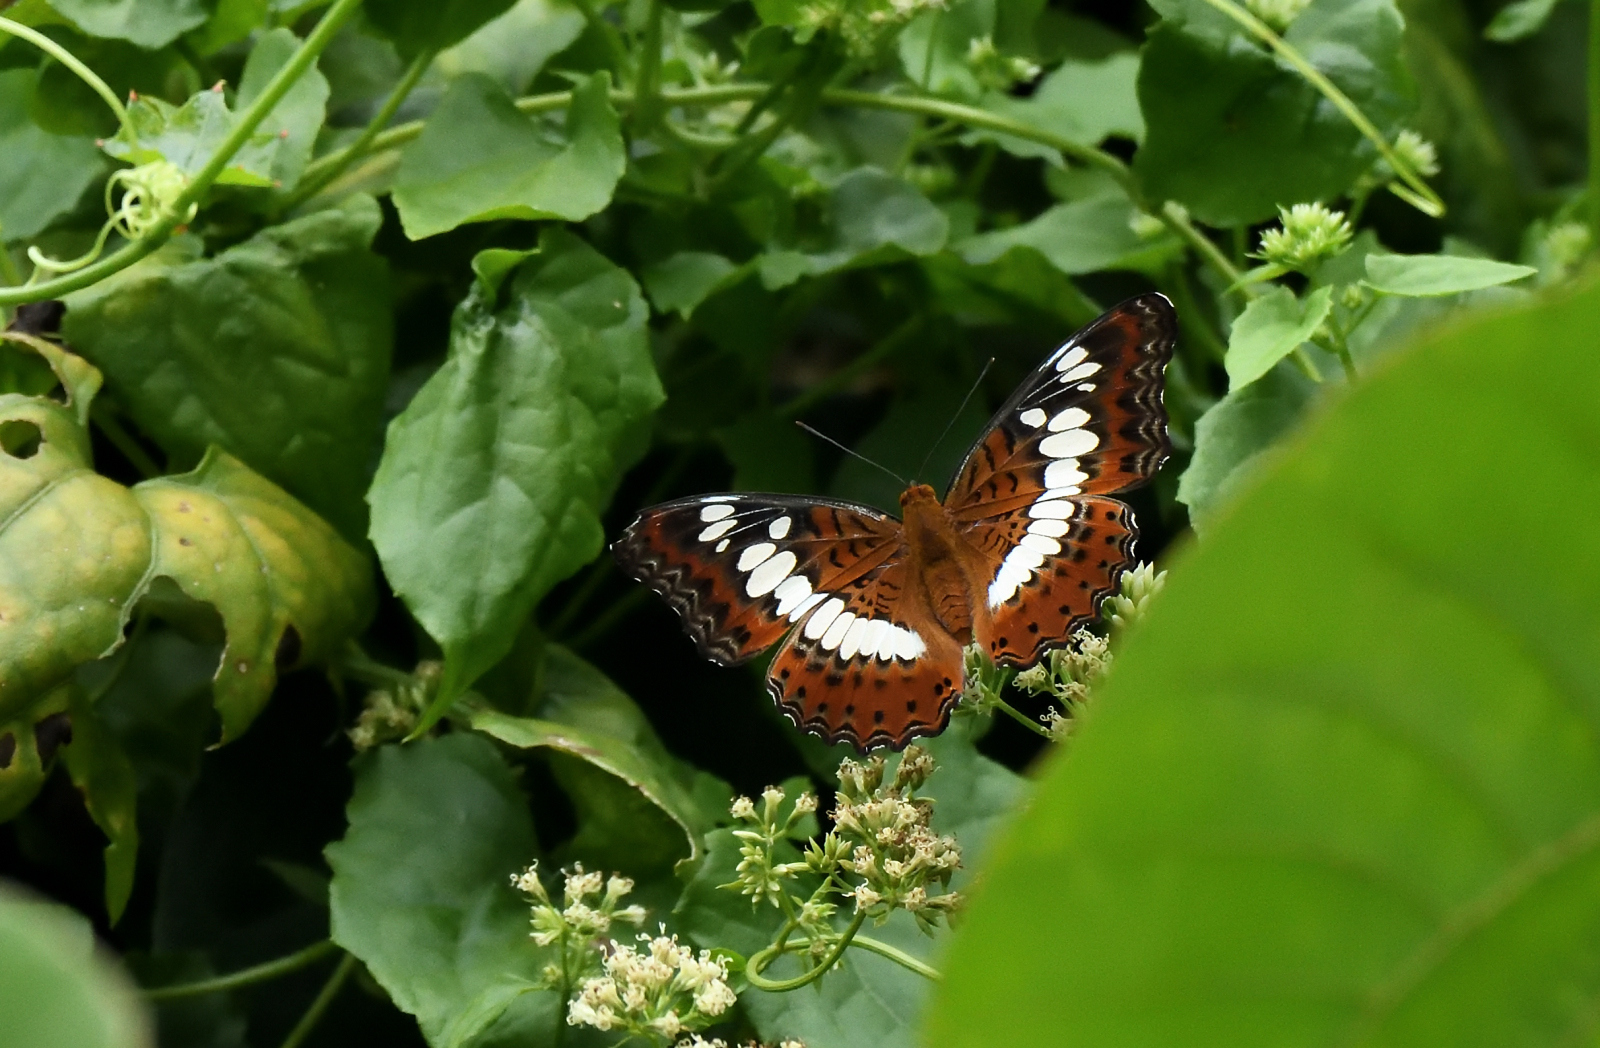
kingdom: Animalia
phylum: Arthropoda
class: Insecta
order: Lepidoptera
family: Nymphalidae
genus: Limenitis
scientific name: Limenitis Moduza procris
